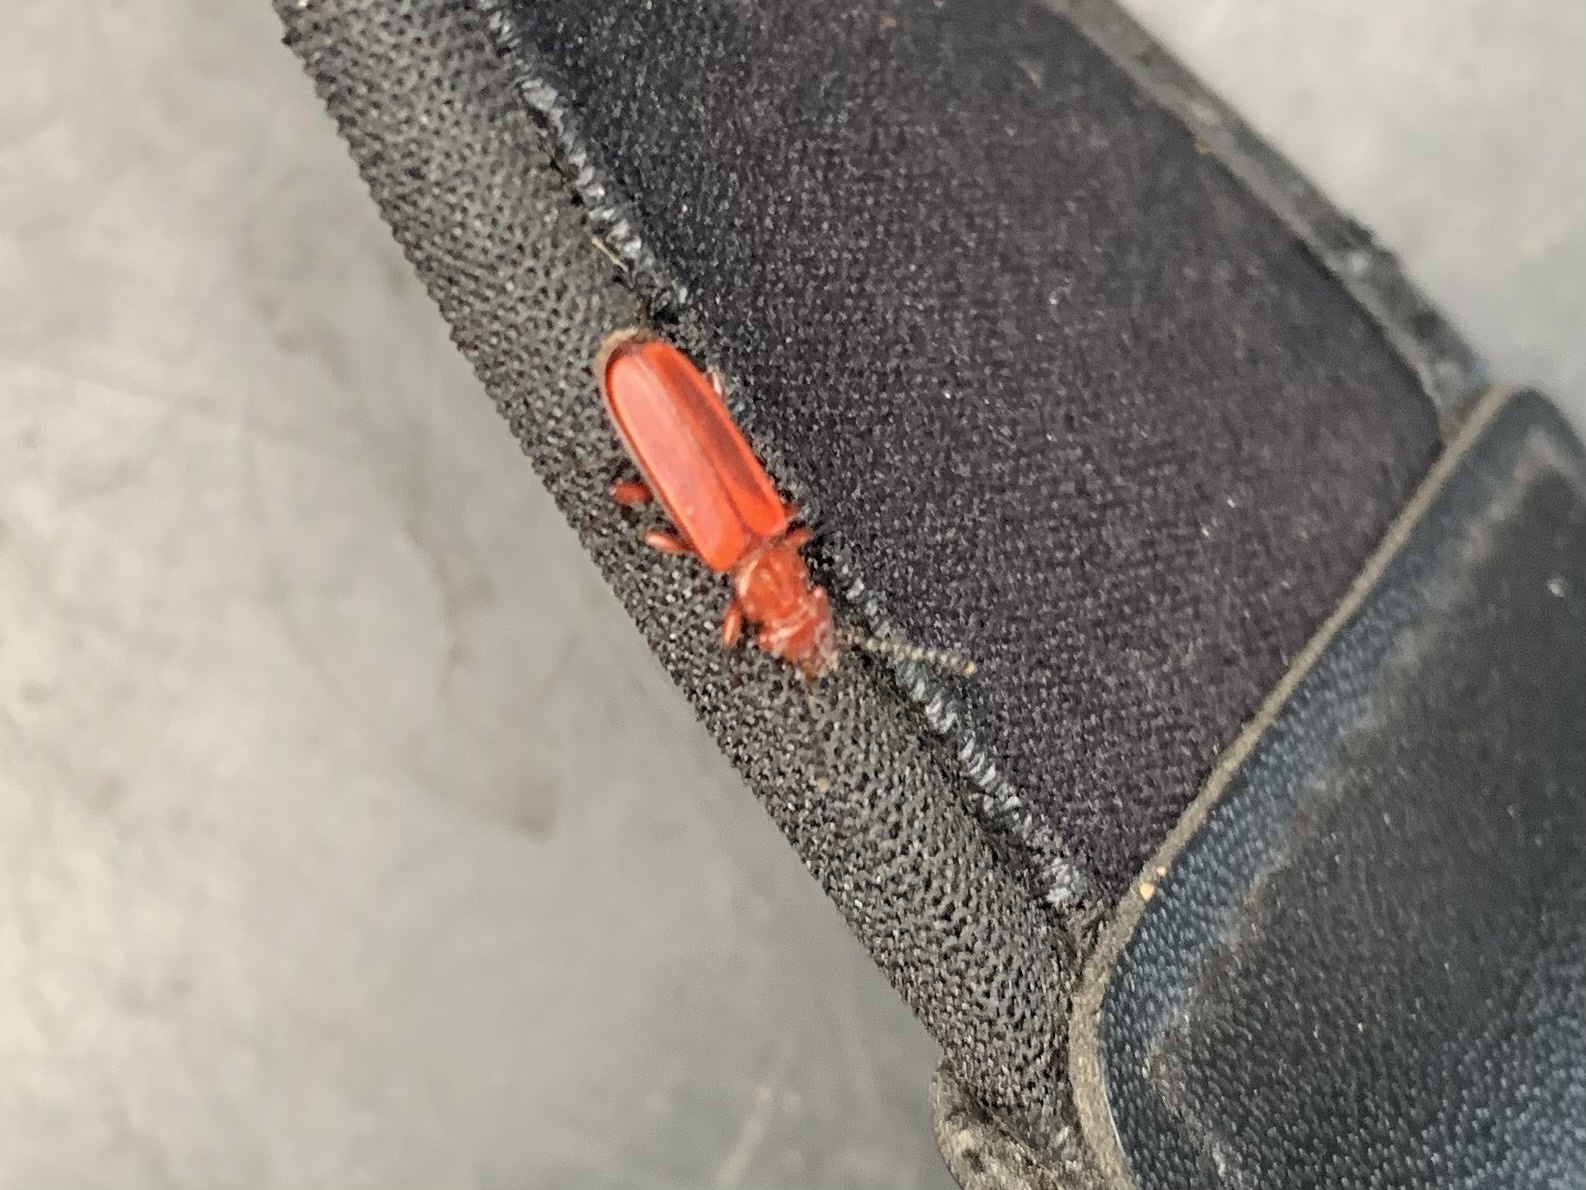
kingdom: Animalia
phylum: Arthropoda
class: Insecta
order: Coleoptera
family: Cucujidae
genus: Cucujus
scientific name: Cucujus clavipes
